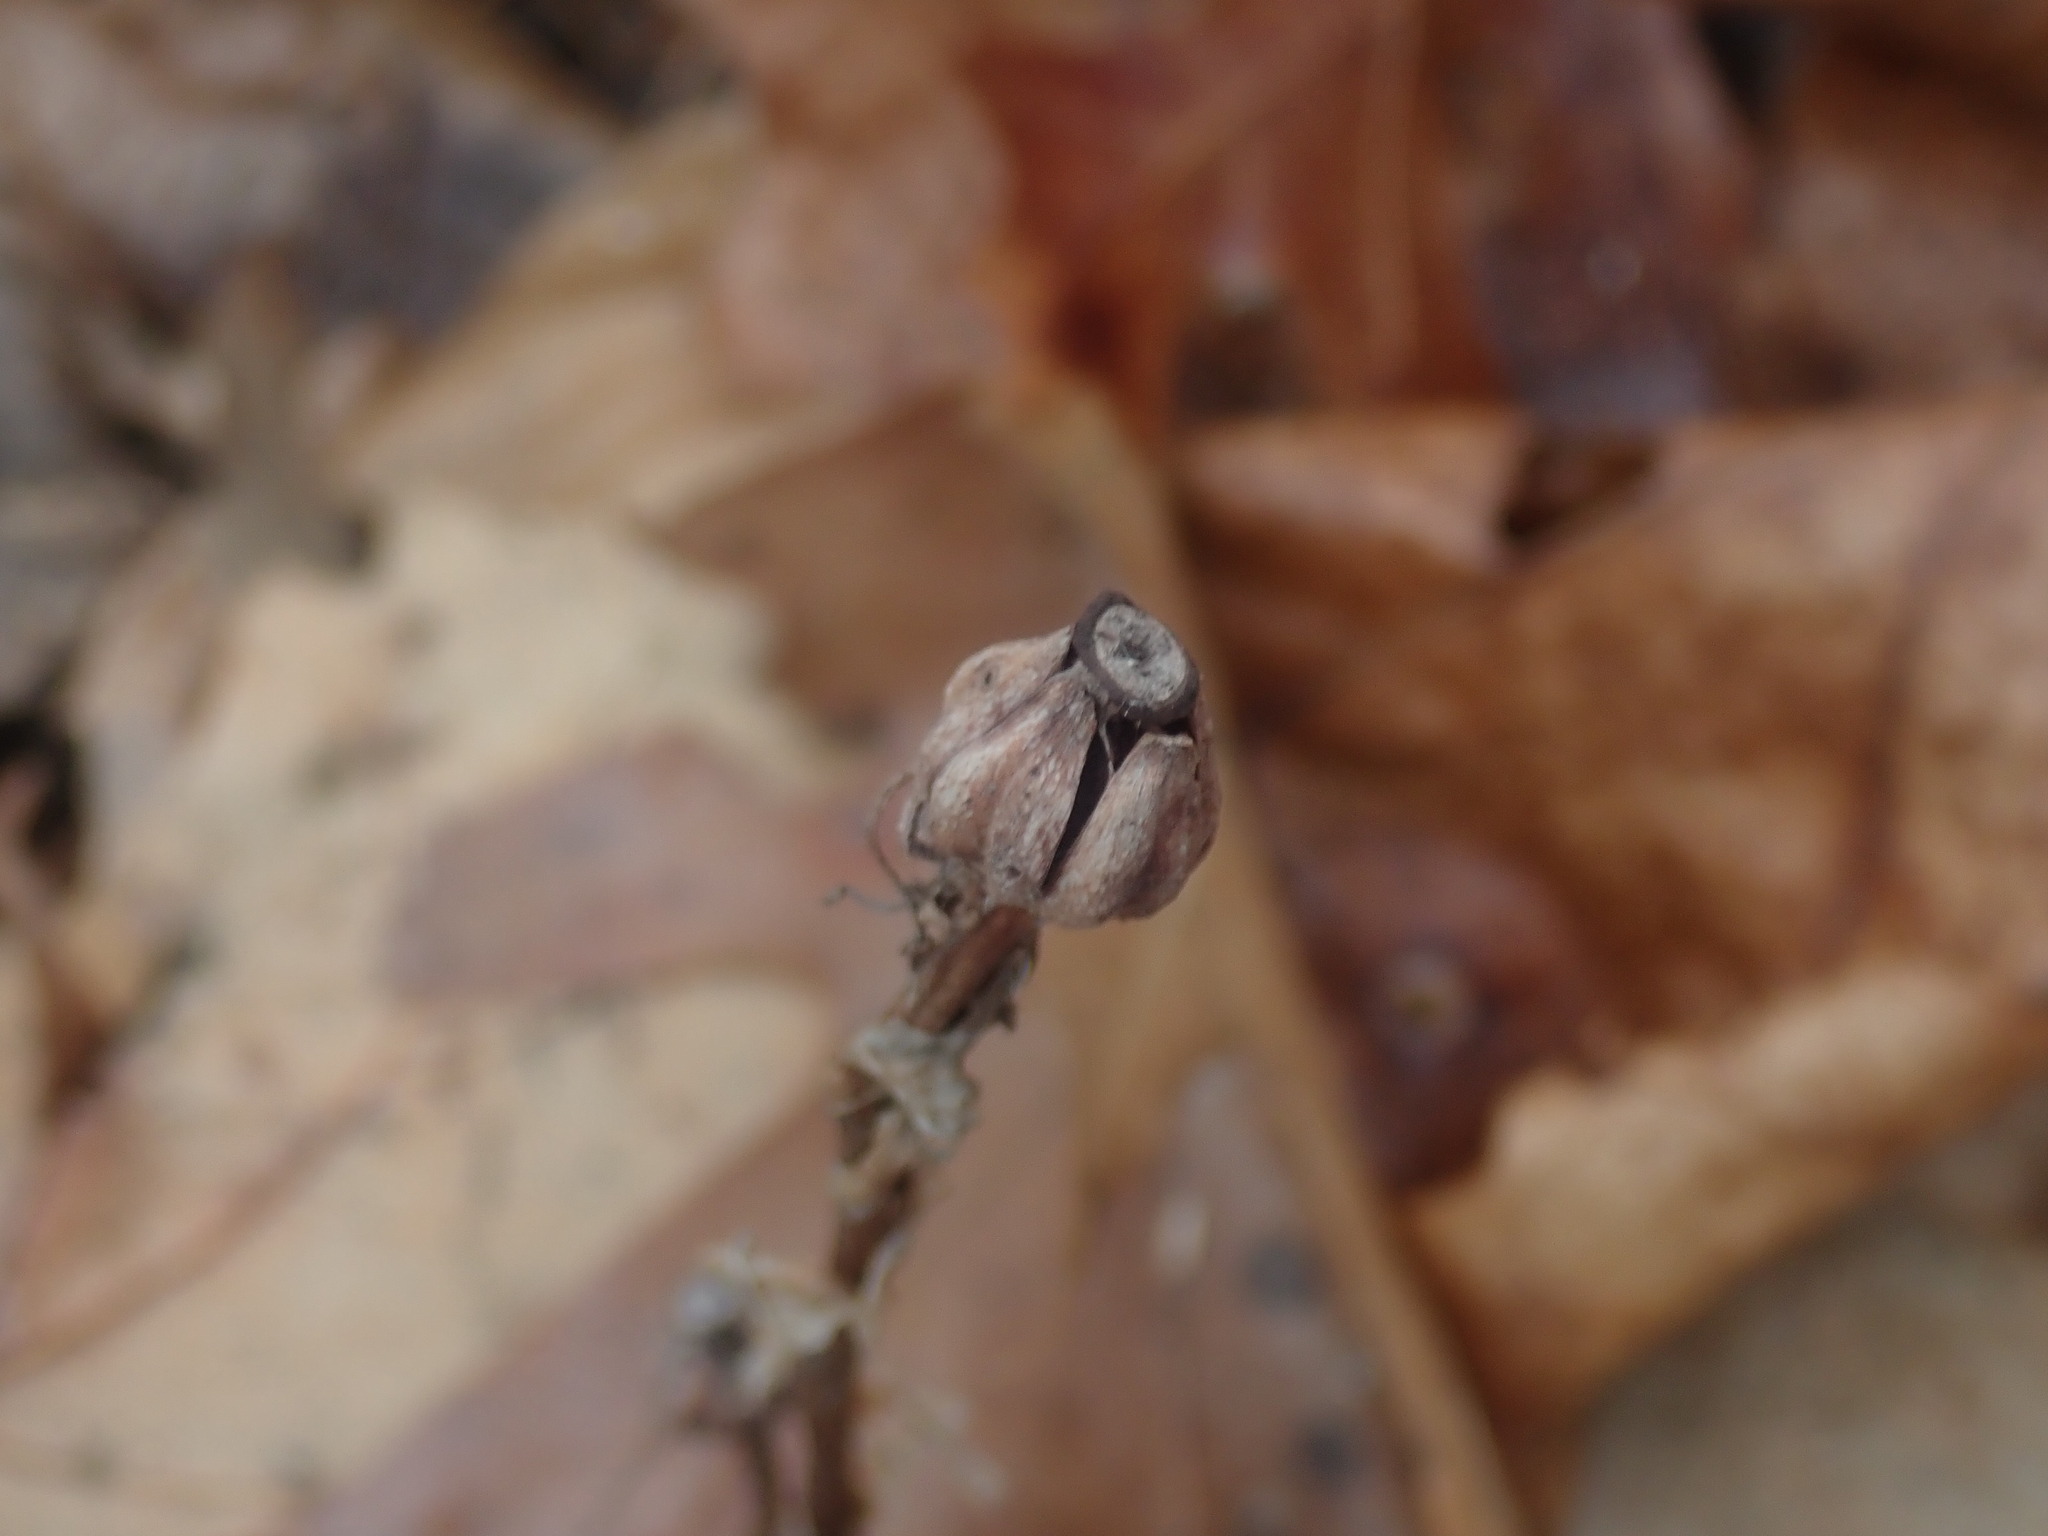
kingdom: Plantae
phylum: Tracheophyta
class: Magnoliopsida
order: Ericales
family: Ericaceae
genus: Monotropa
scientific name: Monotropa uniflora
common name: Convulsion root
